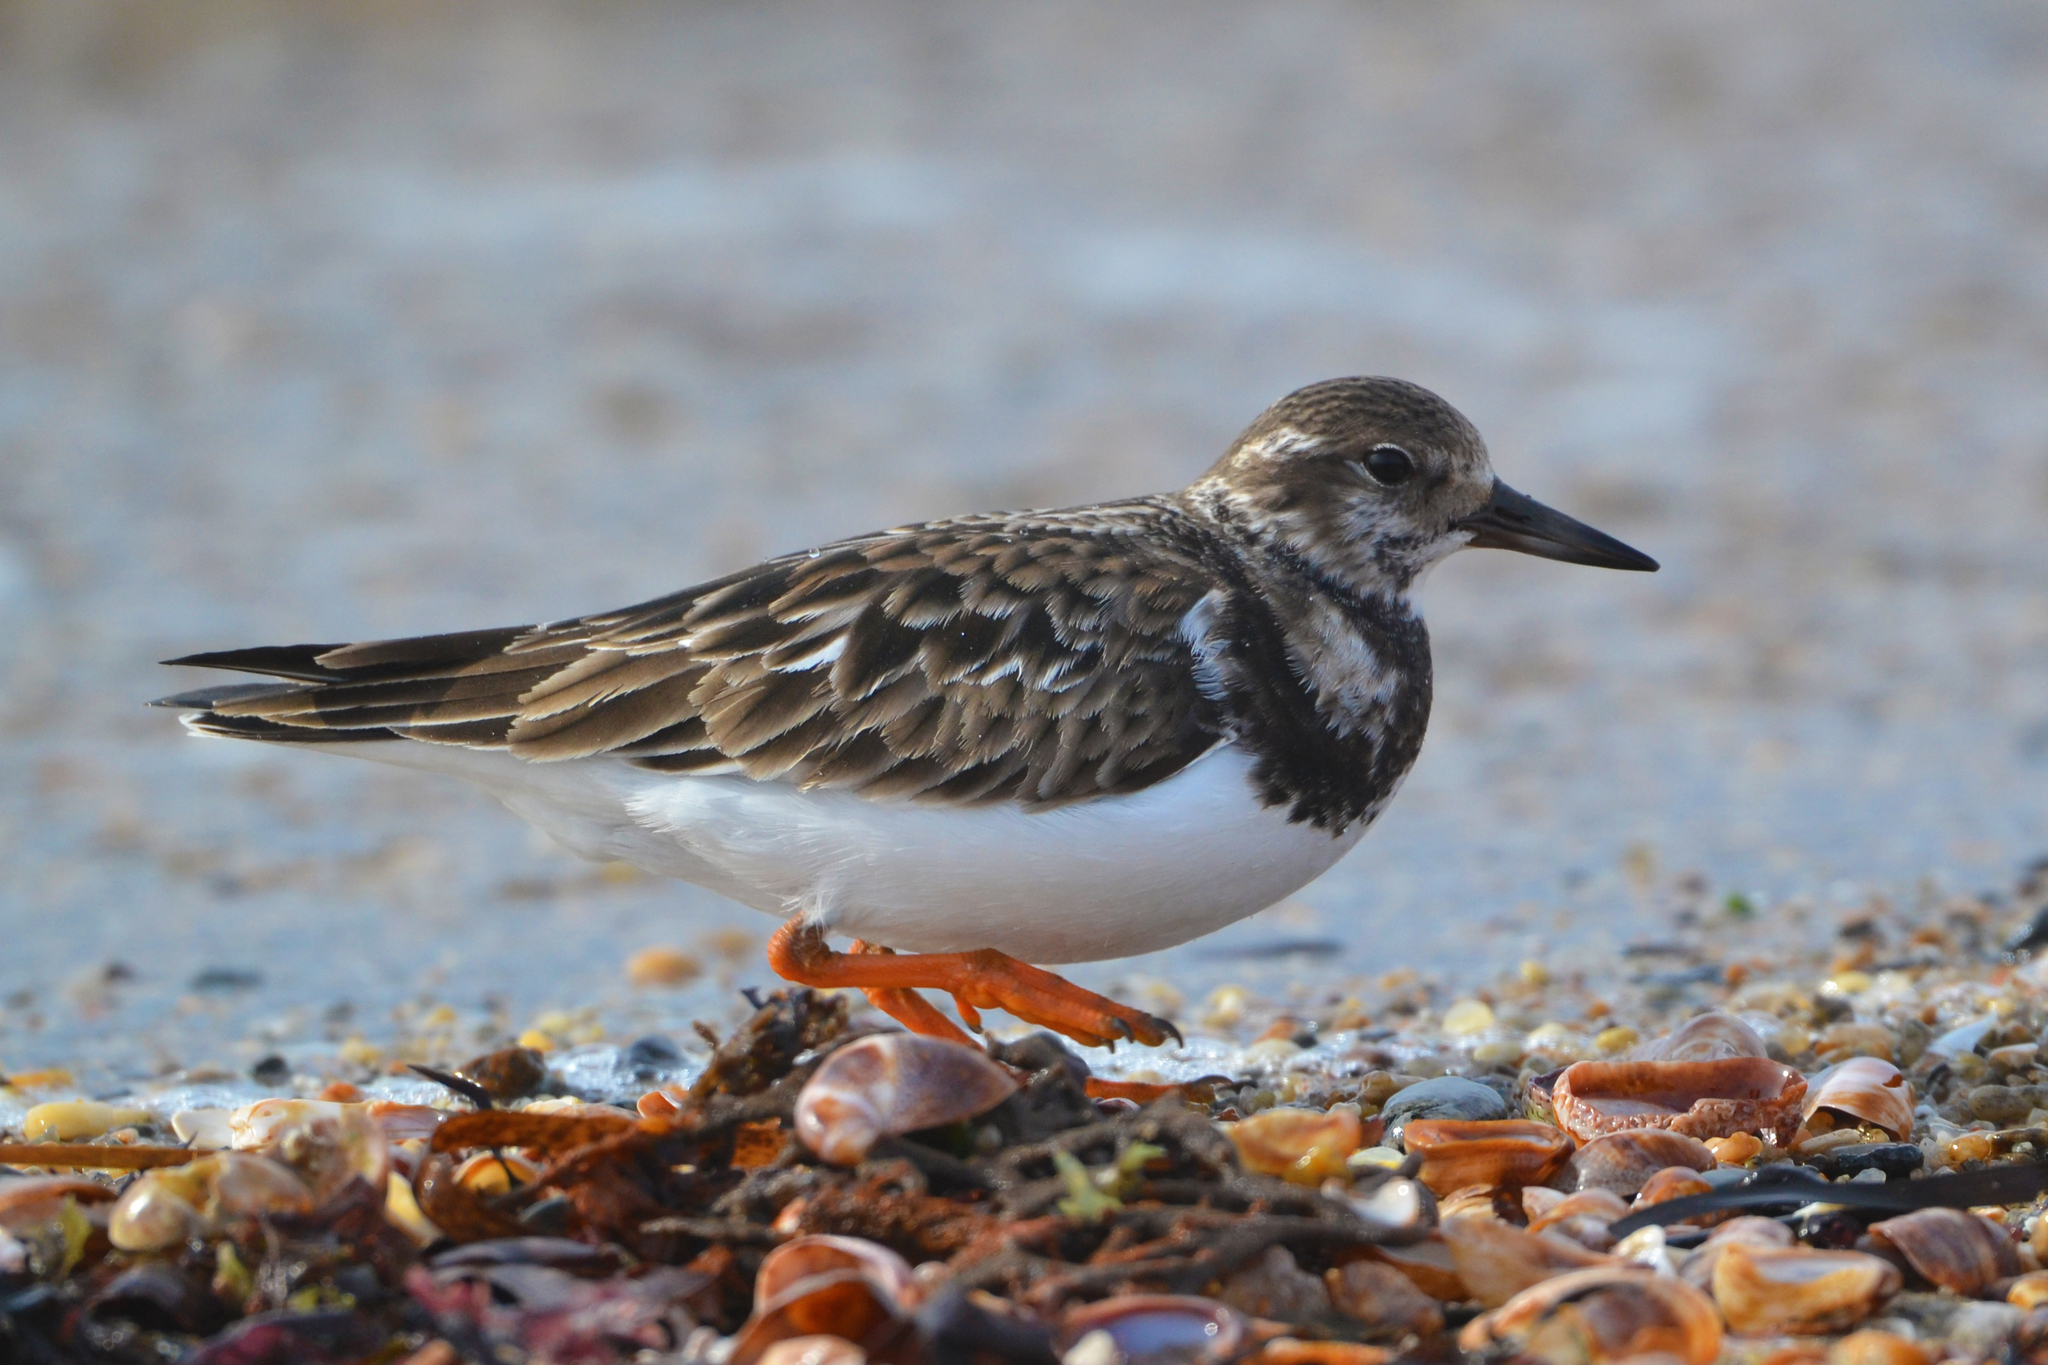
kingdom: Animalia
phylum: Chordata
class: Aves
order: Charadriiformes
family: Scolopacidae
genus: Arenaria
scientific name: Arenaria interpres
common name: Ruddy turnstone
